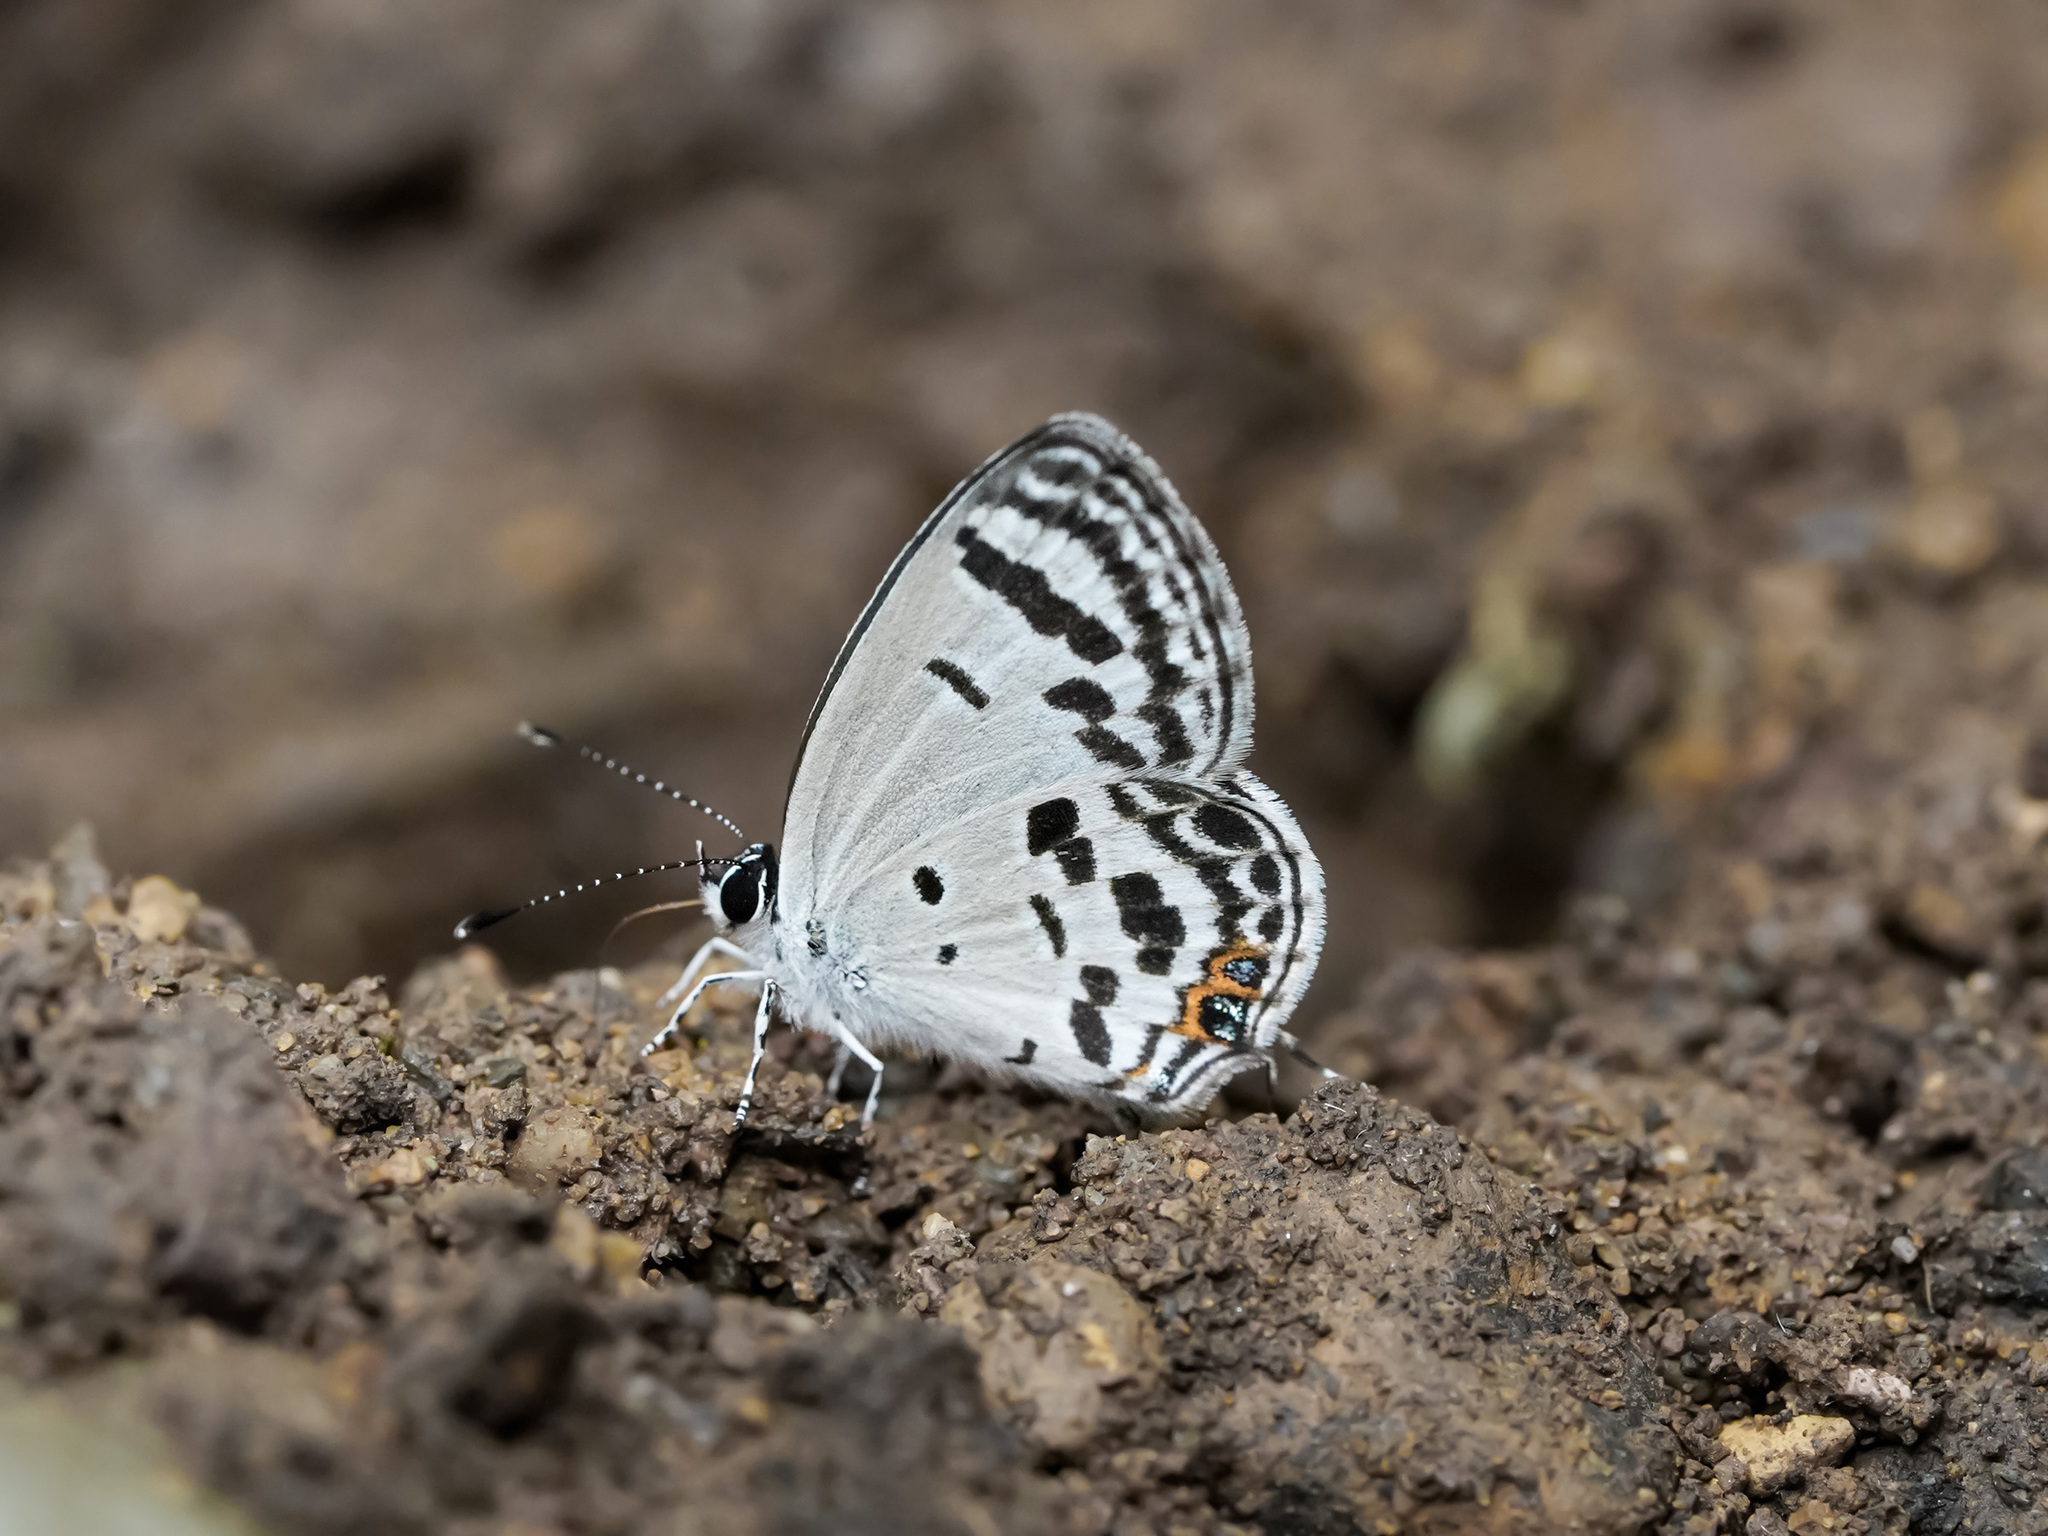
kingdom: Animalia
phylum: Arthropoda
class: Insecta
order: Lepidoptera
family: Lycaenidae
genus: Tongeia
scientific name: Tongeia
